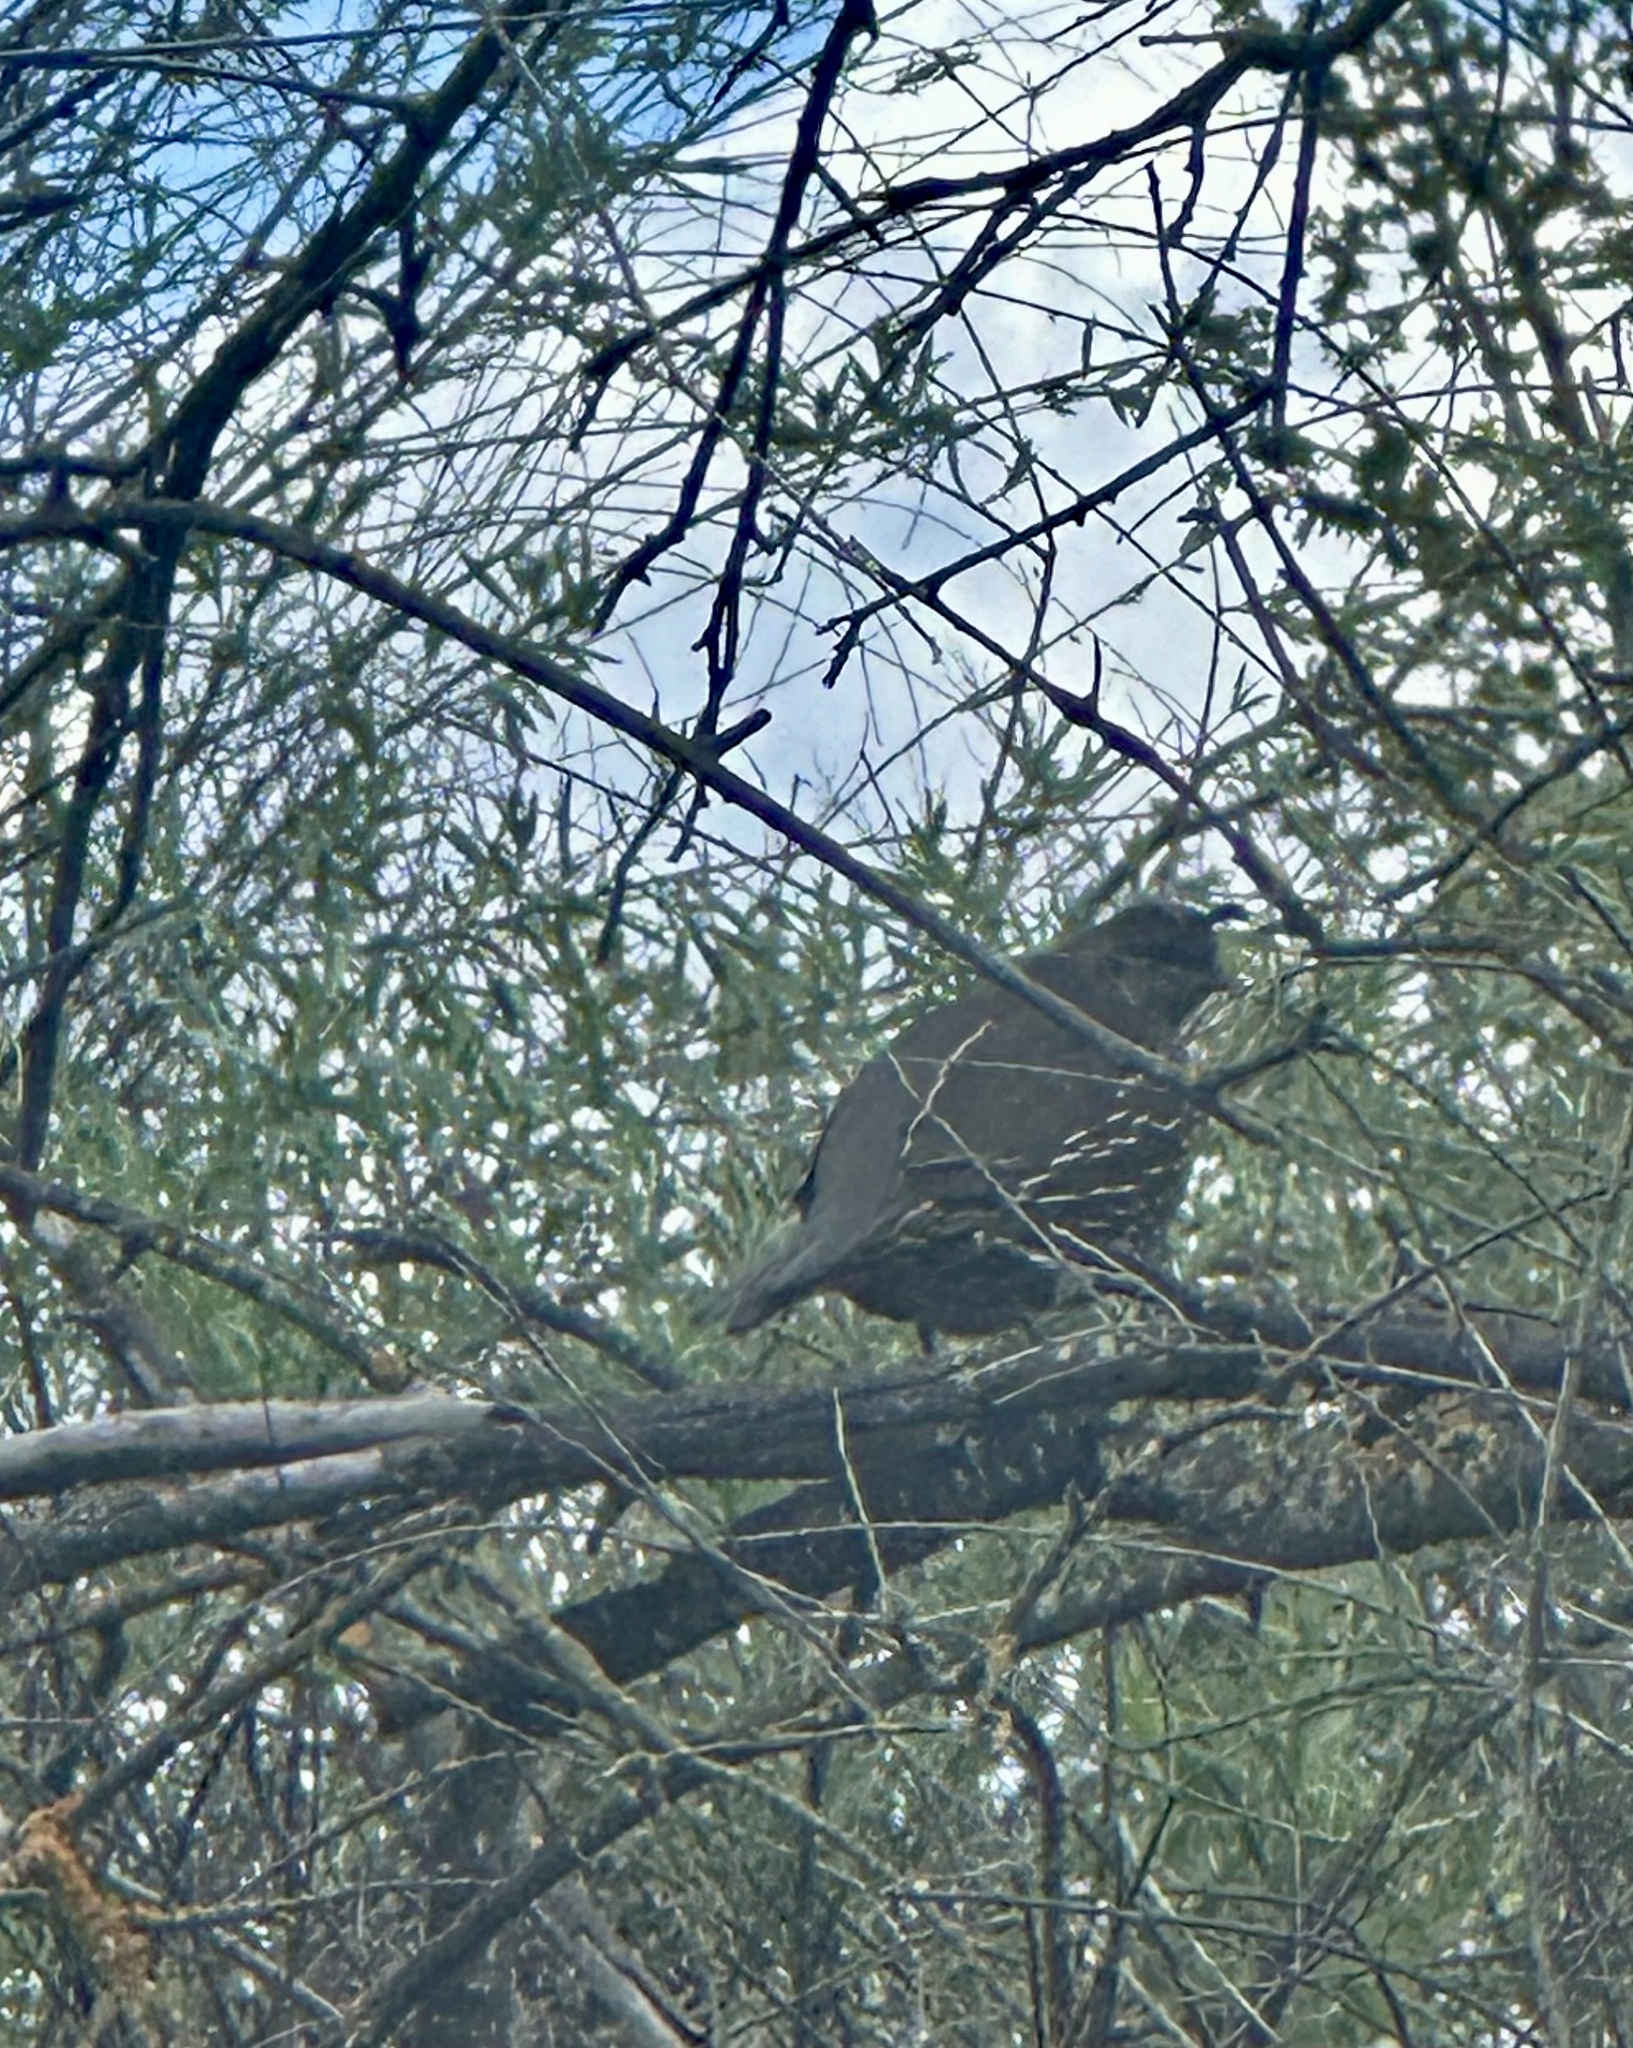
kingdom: Animalia
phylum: Chordata
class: Aves
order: Galliformes
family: Odontophoridae
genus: Callipepla
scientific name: Callipepla californica
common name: California quail
